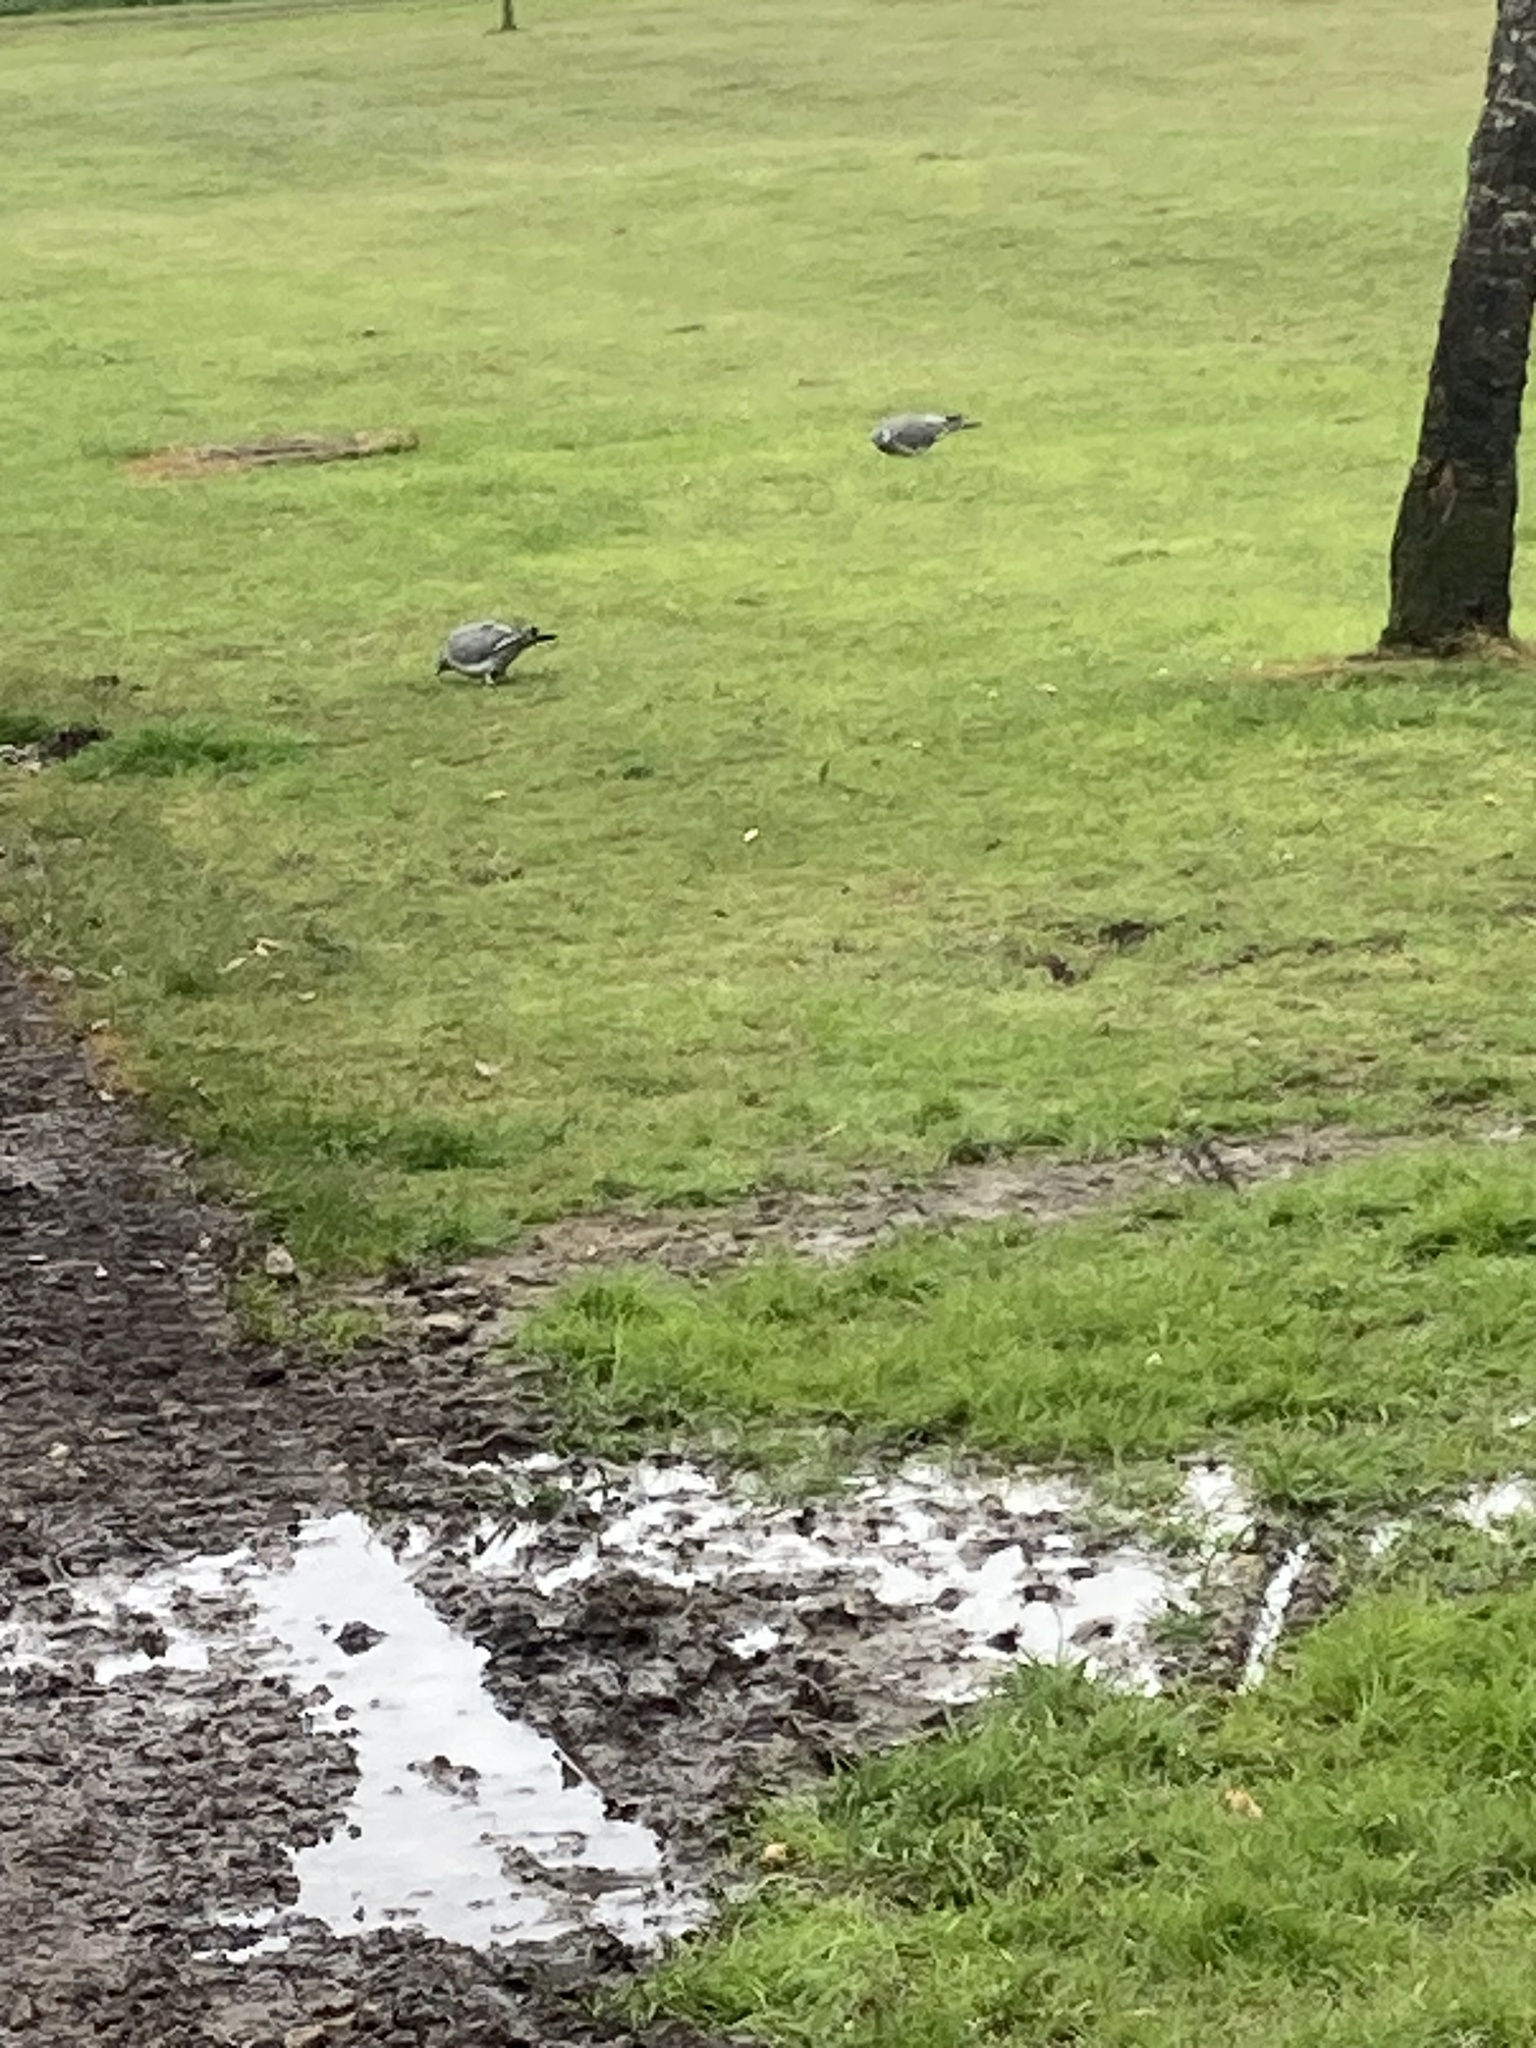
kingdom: Animalia
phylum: Chordata
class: Aves
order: Columbiformes
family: Columbidae
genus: Columba
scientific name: Columba palumbus
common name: Common wood pigeon
